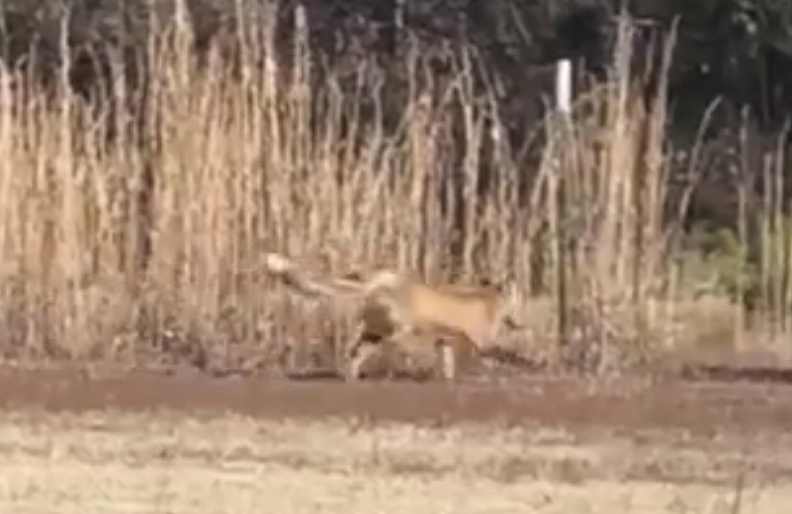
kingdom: Animalia
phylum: Chordata
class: Mammalia
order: Carnivora
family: Canidae
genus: Vulpes
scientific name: Vulpes vulpes
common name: Red fox
